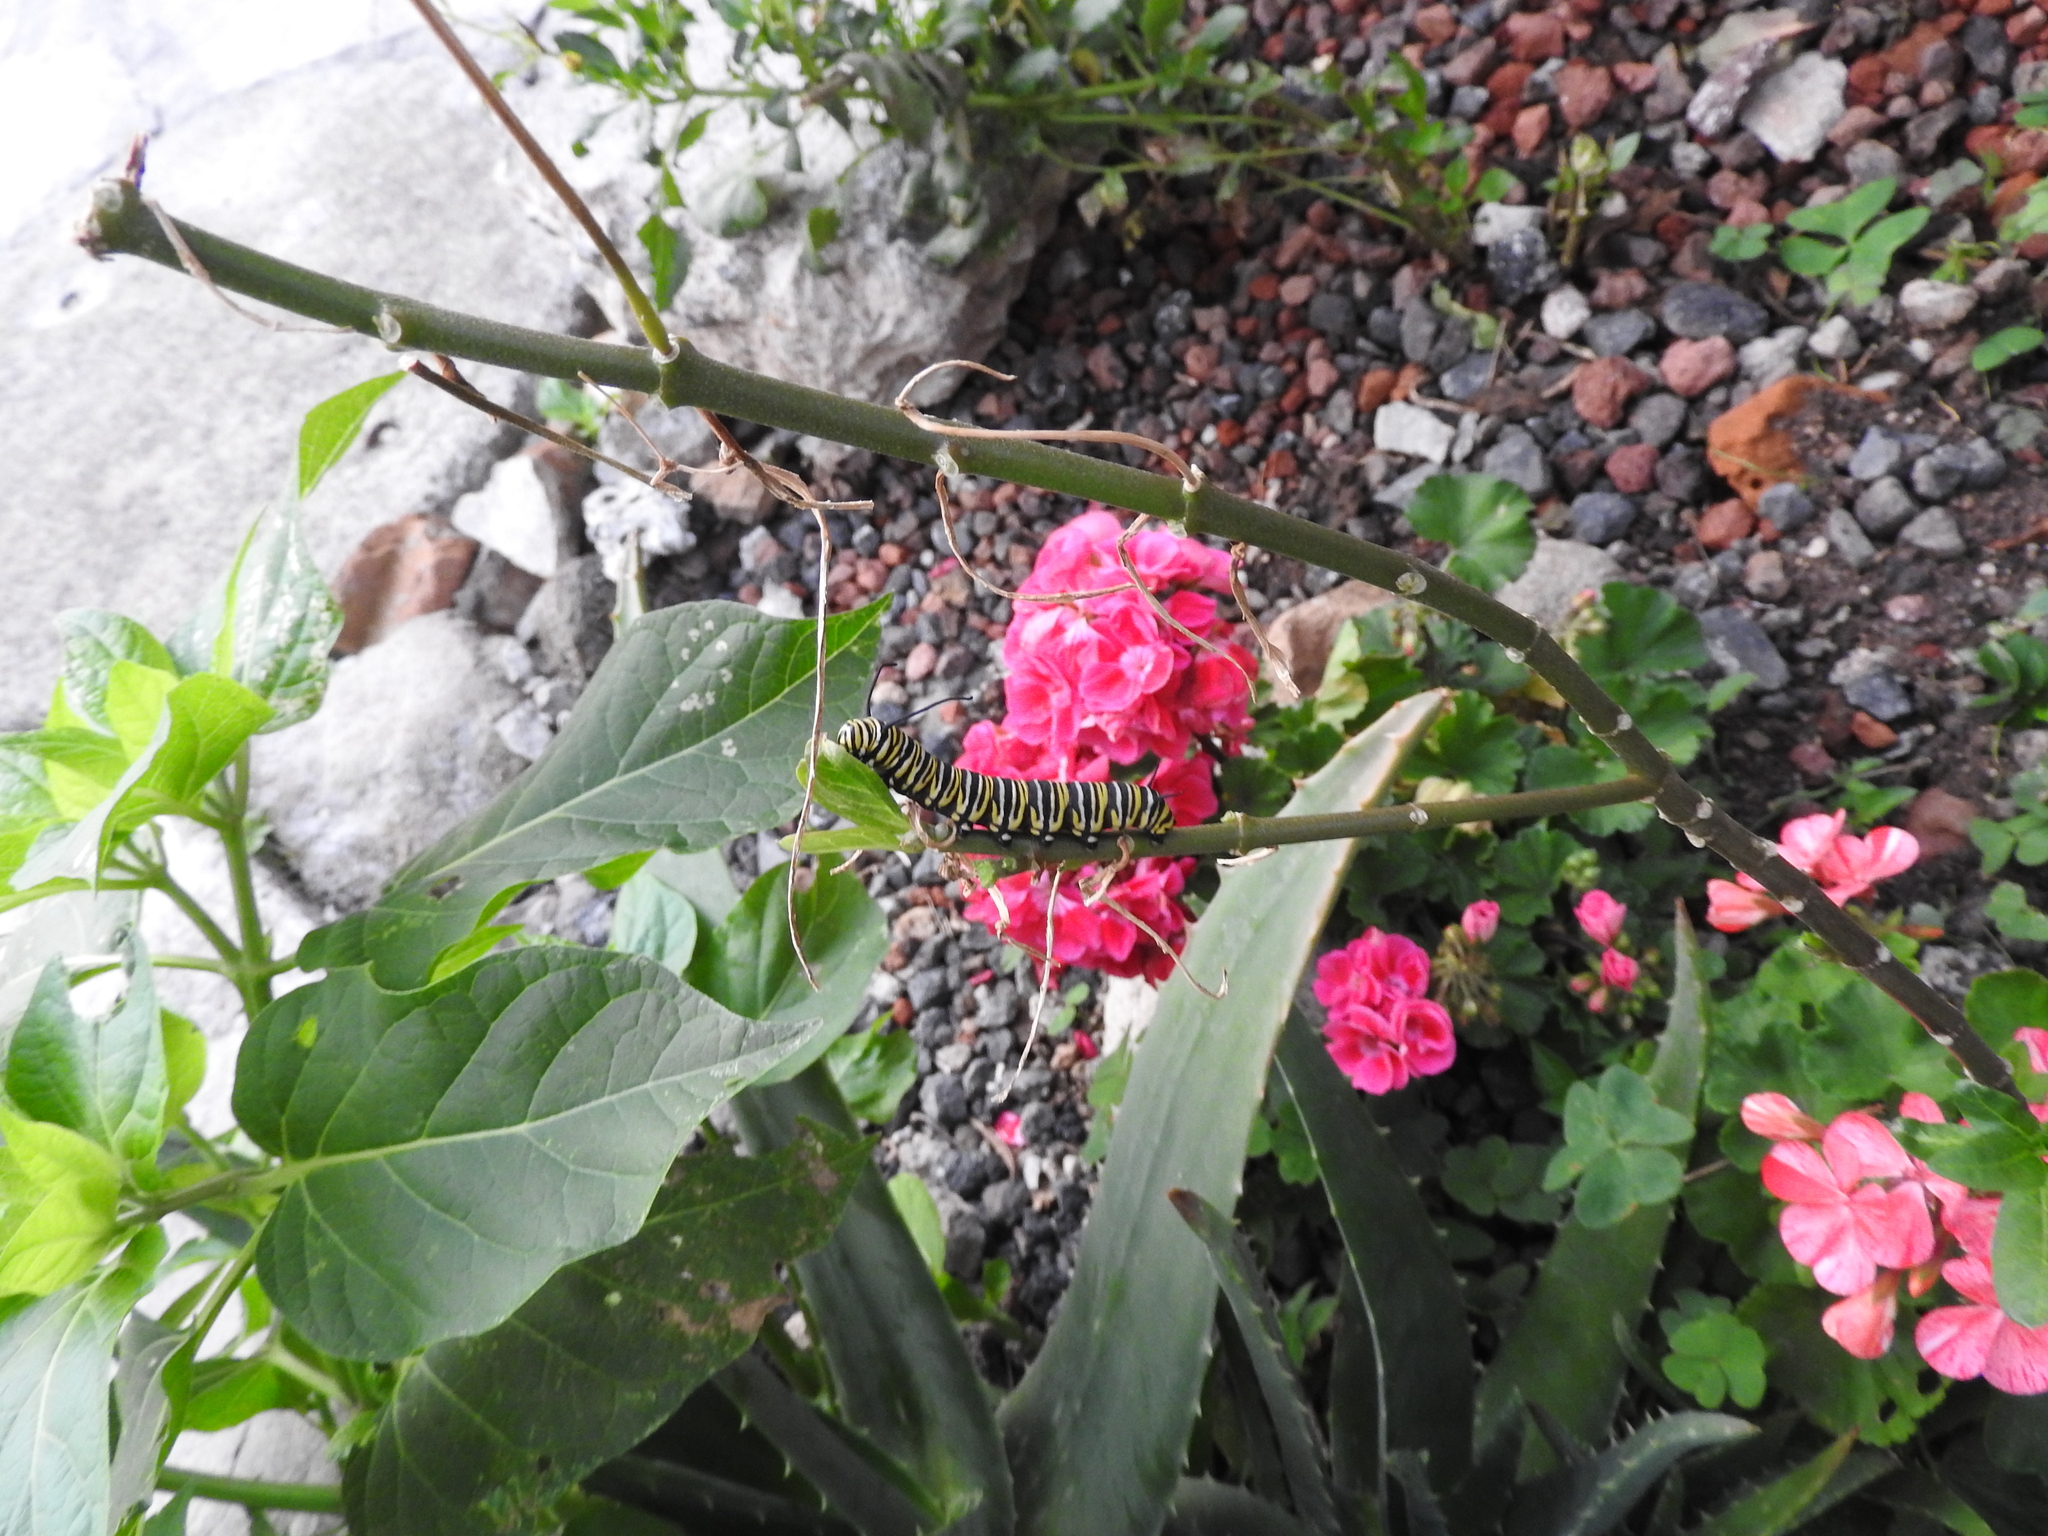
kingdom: Animalia
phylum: Arthropoda
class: Insecta
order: Lepidoptera
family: Nymphalidae
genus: Danaus
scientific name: Danaus plexippus
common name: Monarch
